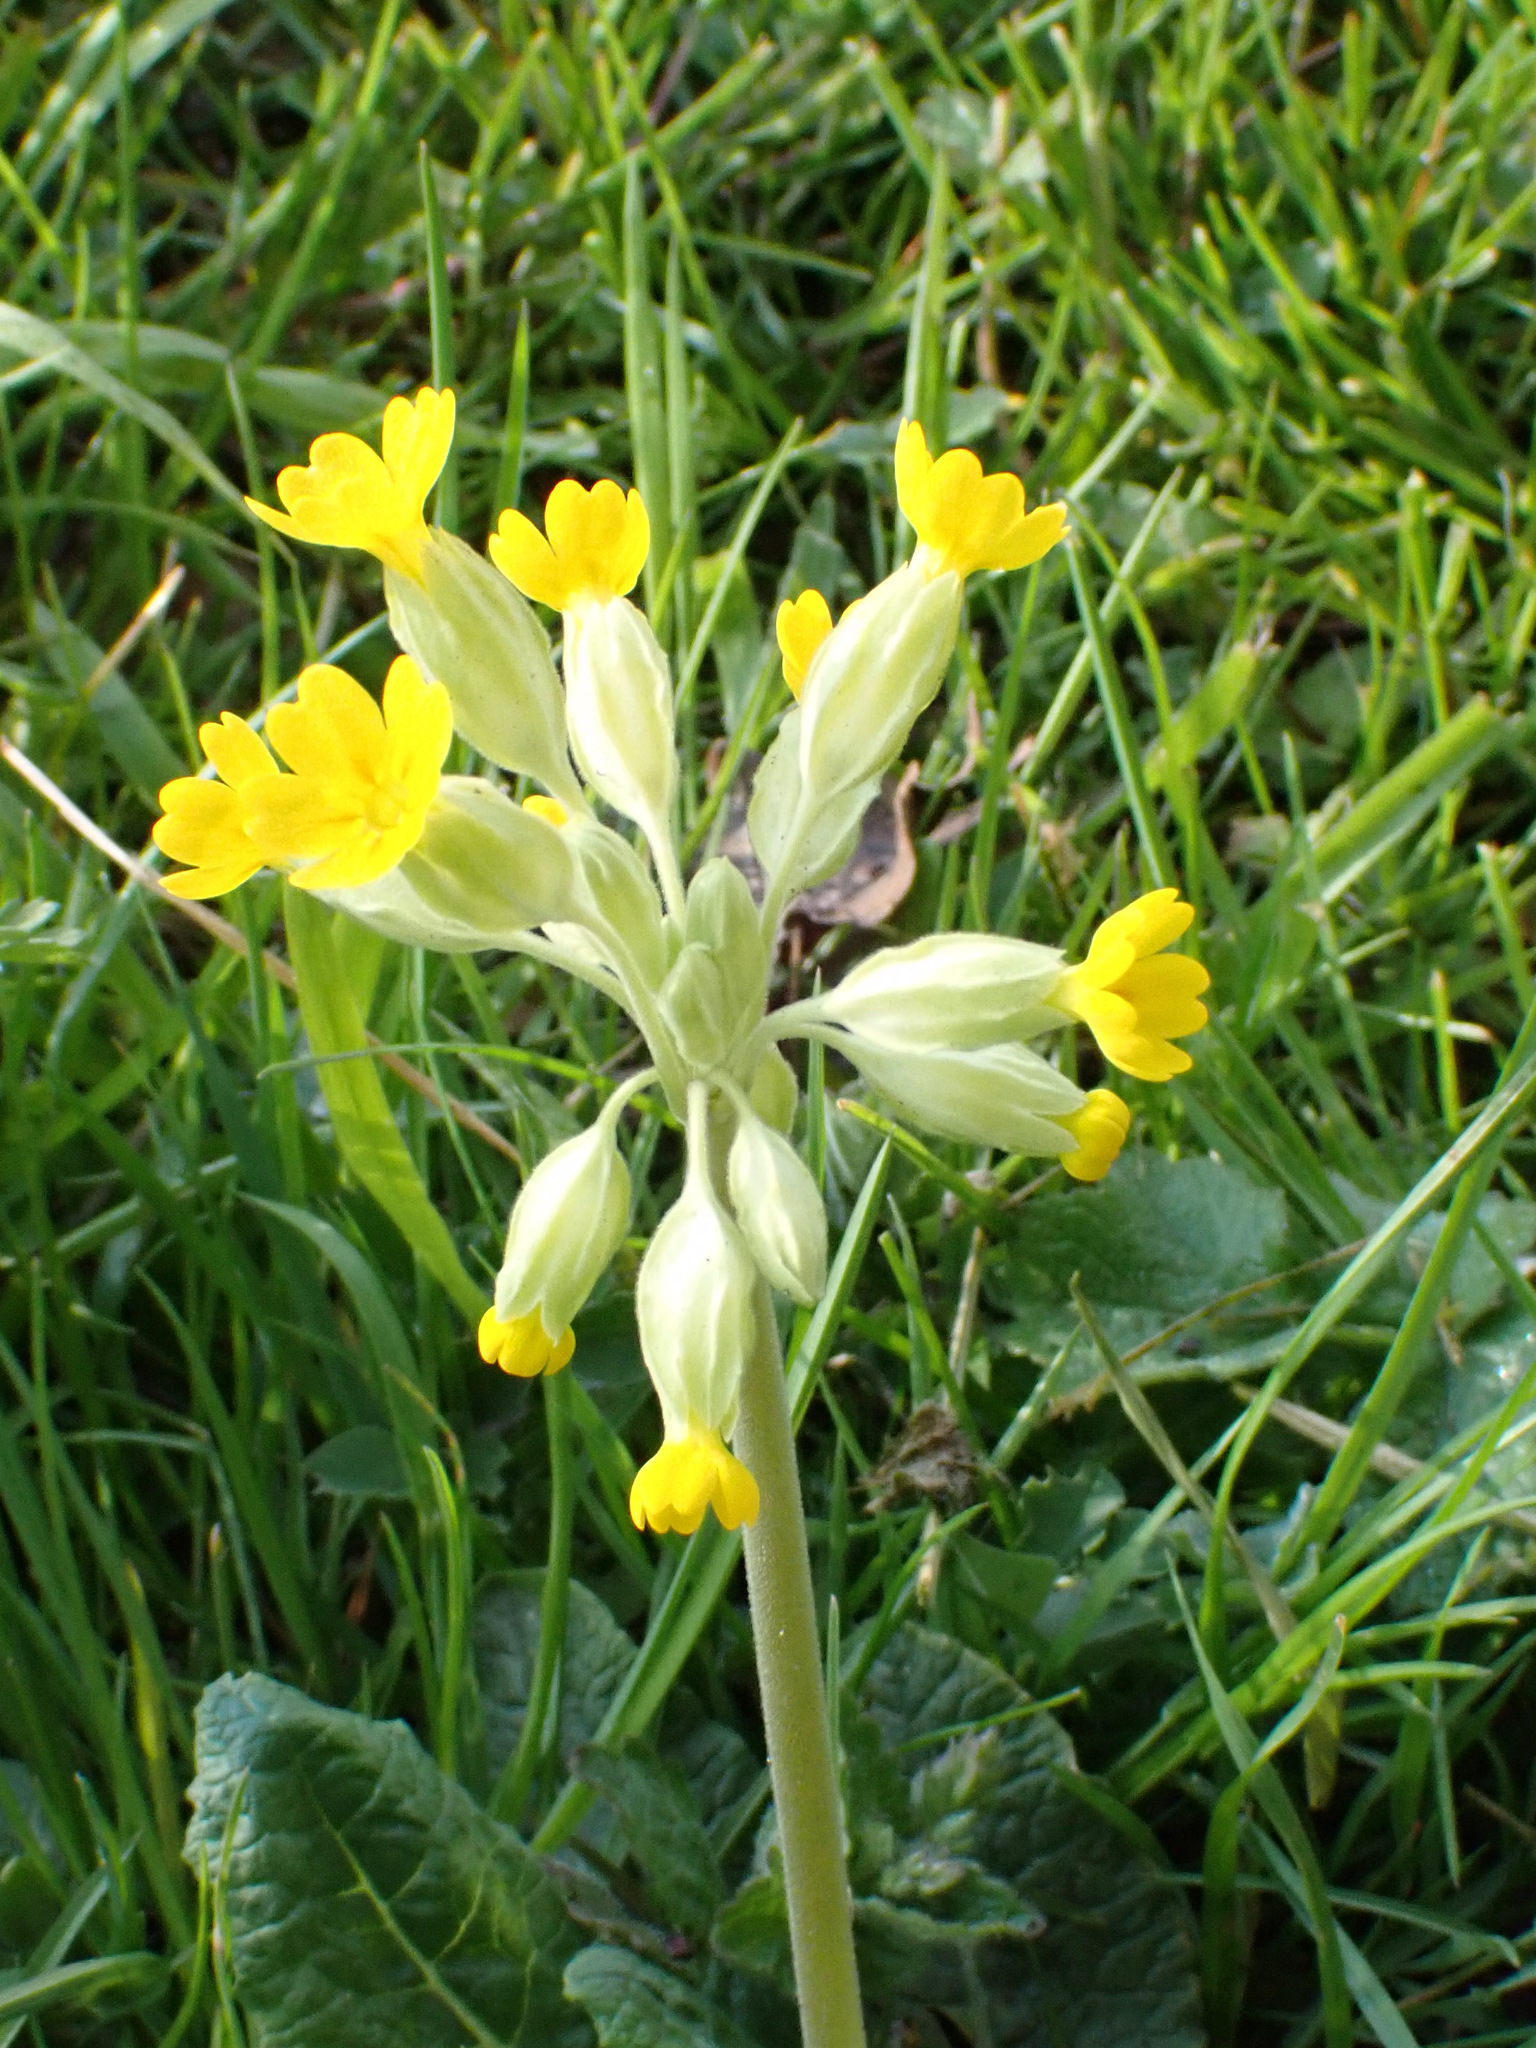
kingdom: Plantae
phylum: Tracheophyta
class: Magnoliopsida
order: Ericales
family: Primulaceae
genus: Primula
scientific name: Primula veris
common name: Cowslip
